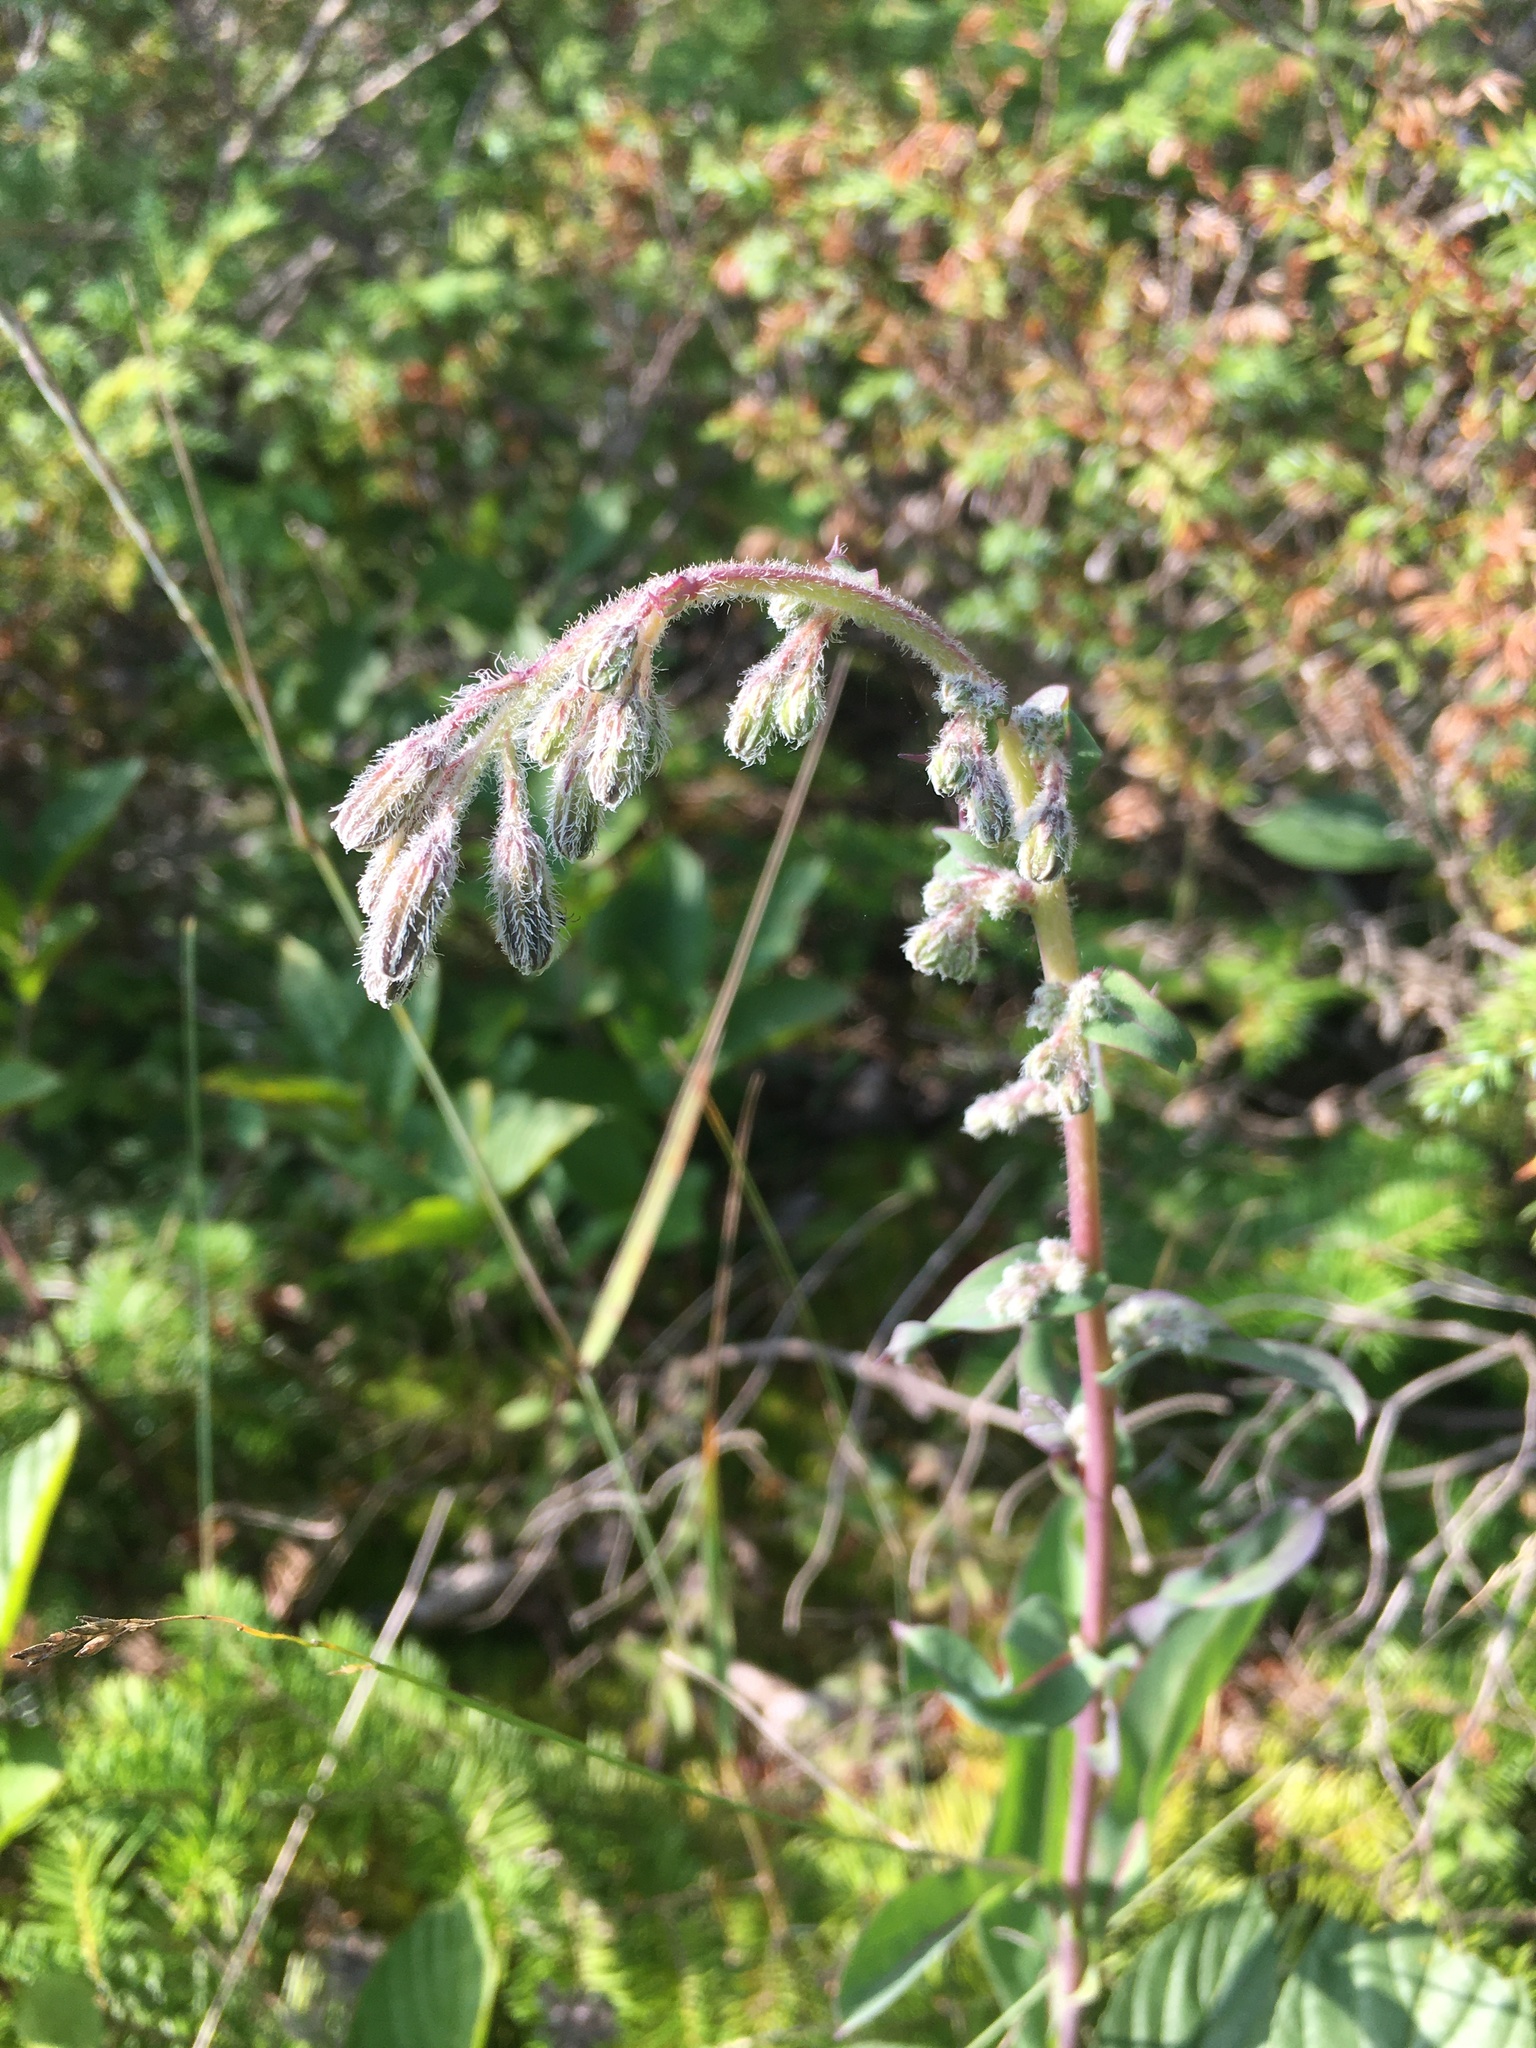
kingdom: Plantae
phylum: Tracheophyta
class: Magnoliopsida
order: Asterales
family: Asteraceae
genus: Nabalus
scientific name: Nabalus racemosus
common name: Glaucous white lettuce
